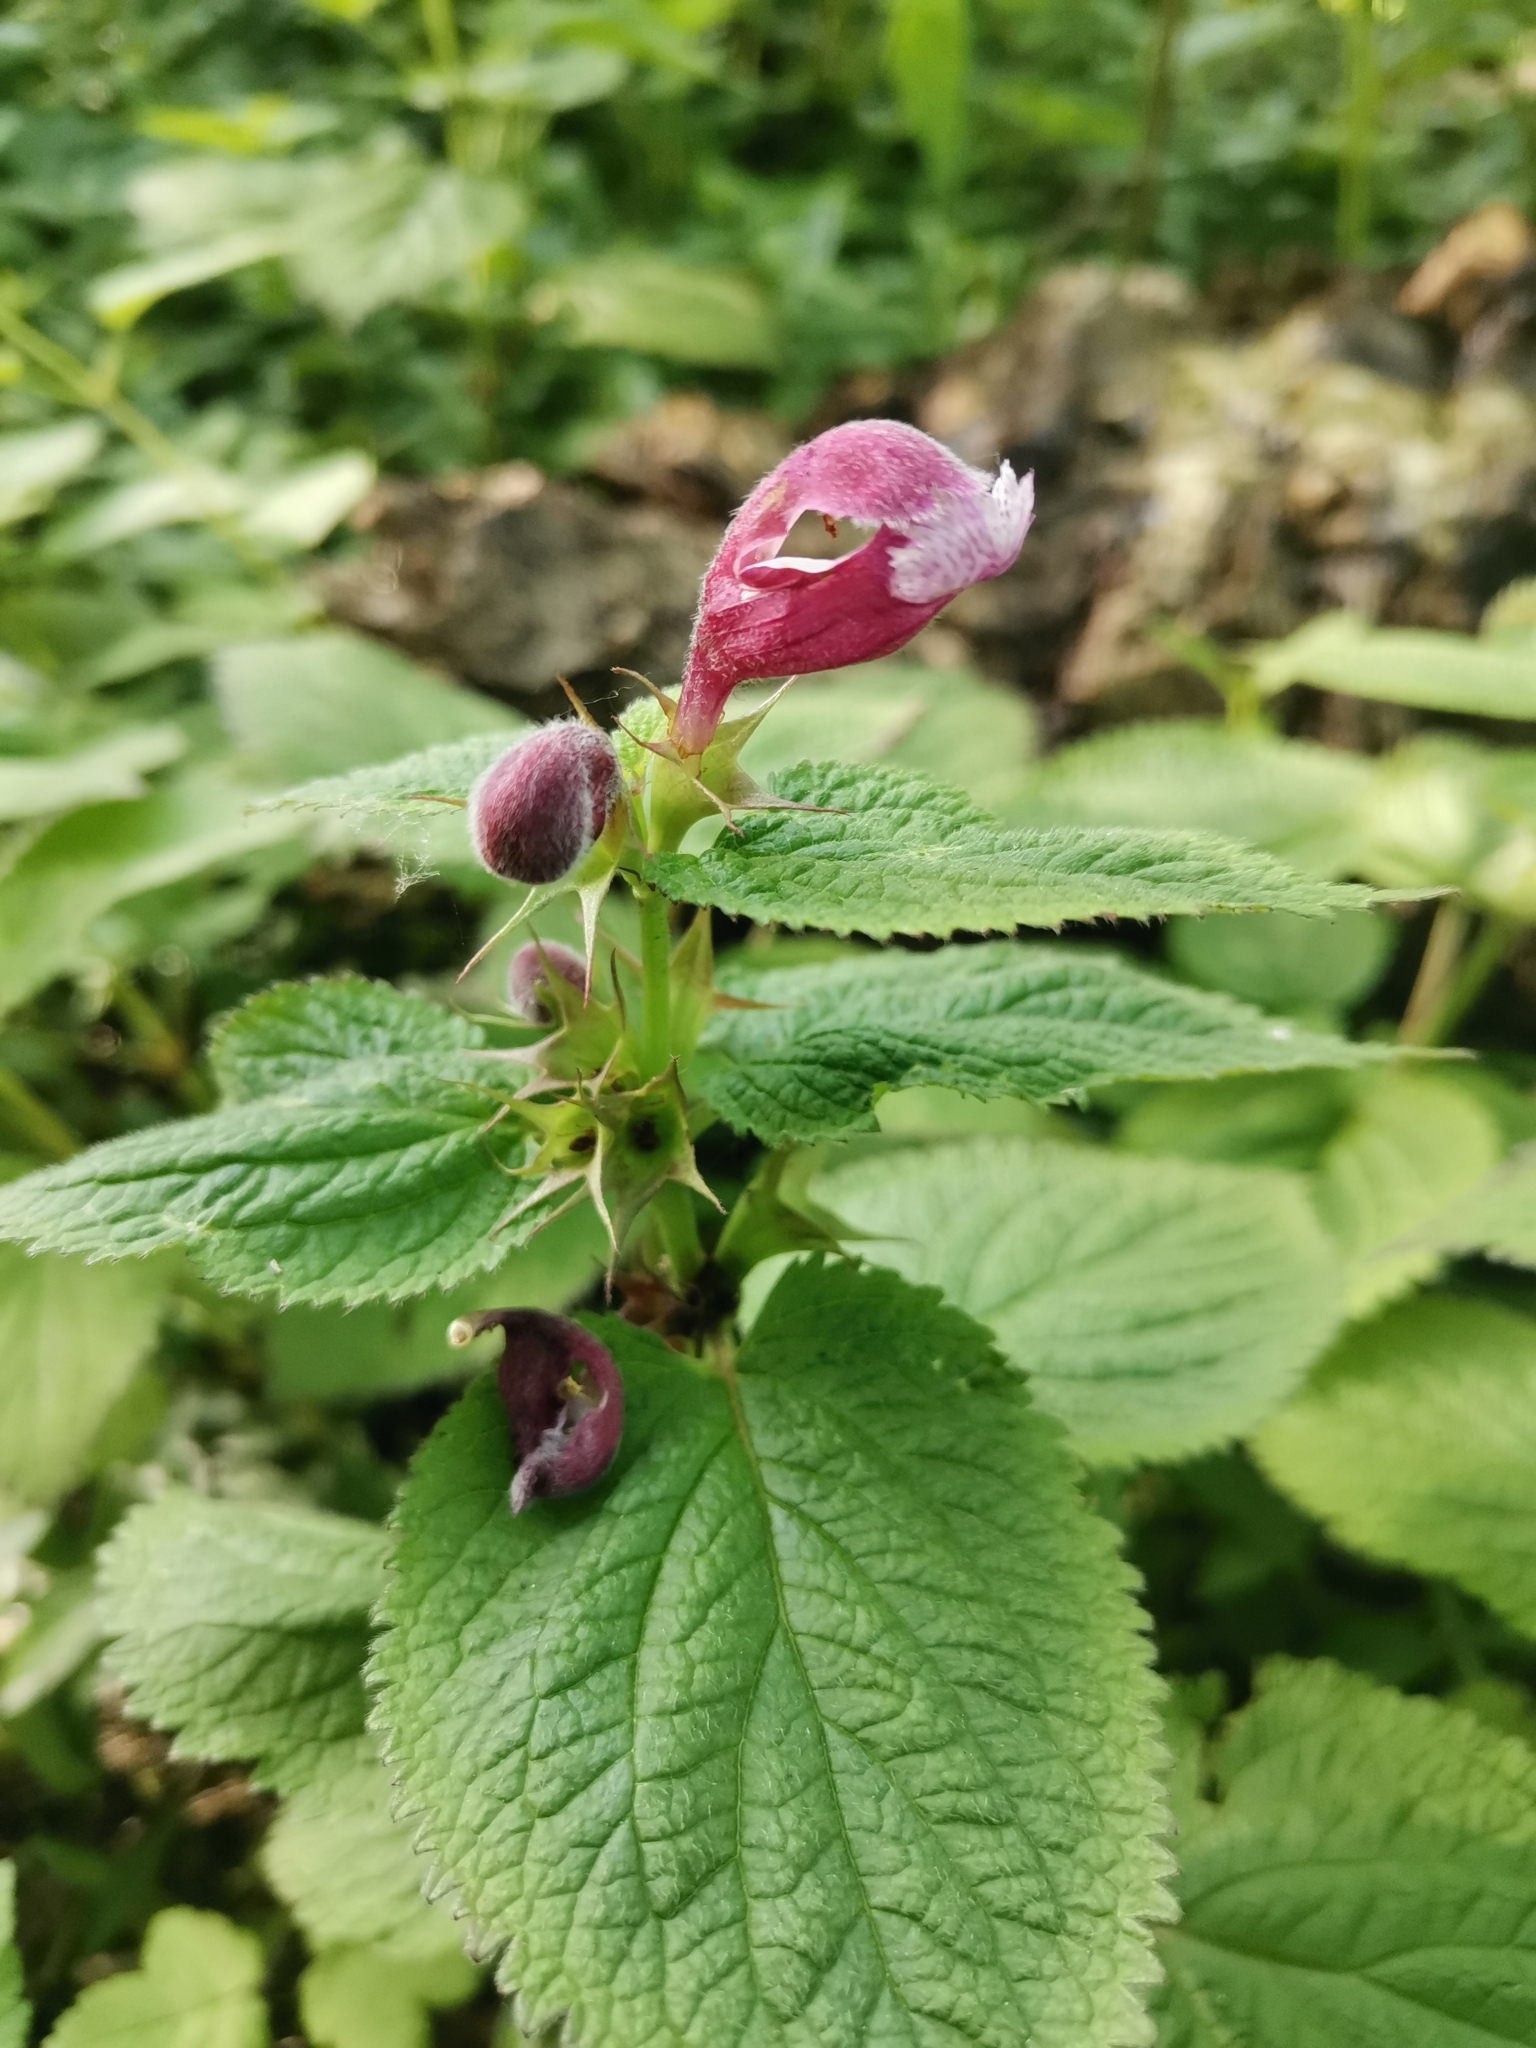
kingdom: Plantae
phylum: Tracheophyta
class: Magnoliopsida
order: Lamiales
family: Lamiaceae
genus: Lamium
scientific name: Lamium orvala
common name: Balm-leaved archangel
